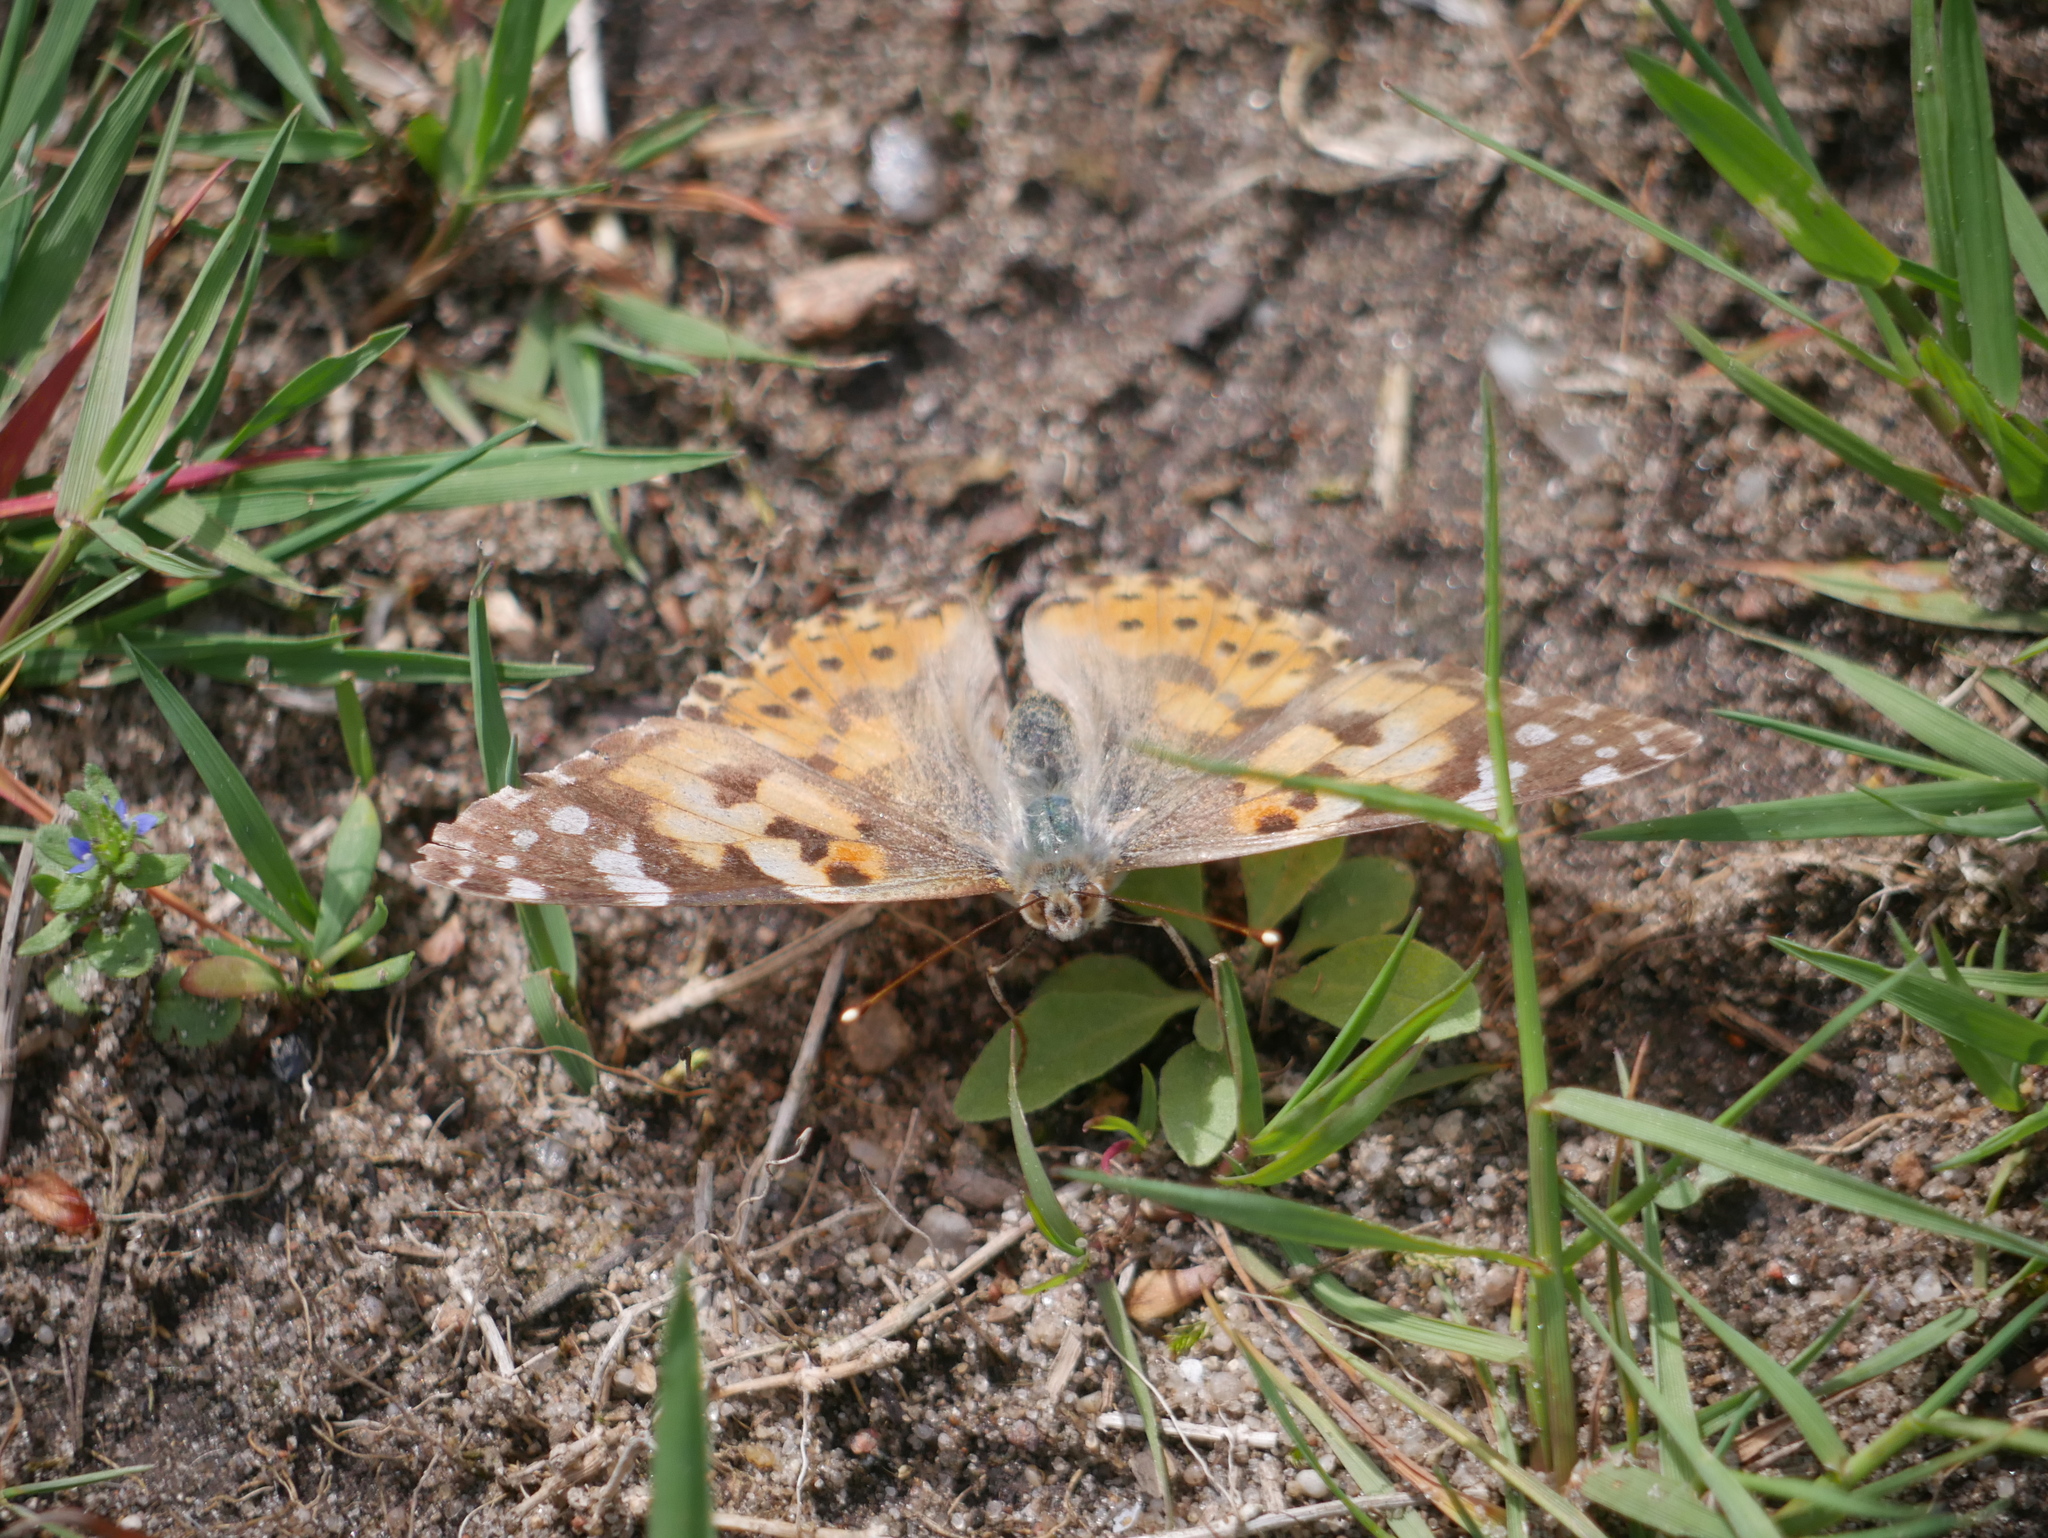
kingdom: Animalia
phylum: Arthropoda
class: Insecta
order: Lepidoptera
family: Nymphalidae
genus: Vanessa
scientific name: Vanessa cardui
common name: Painted lady
